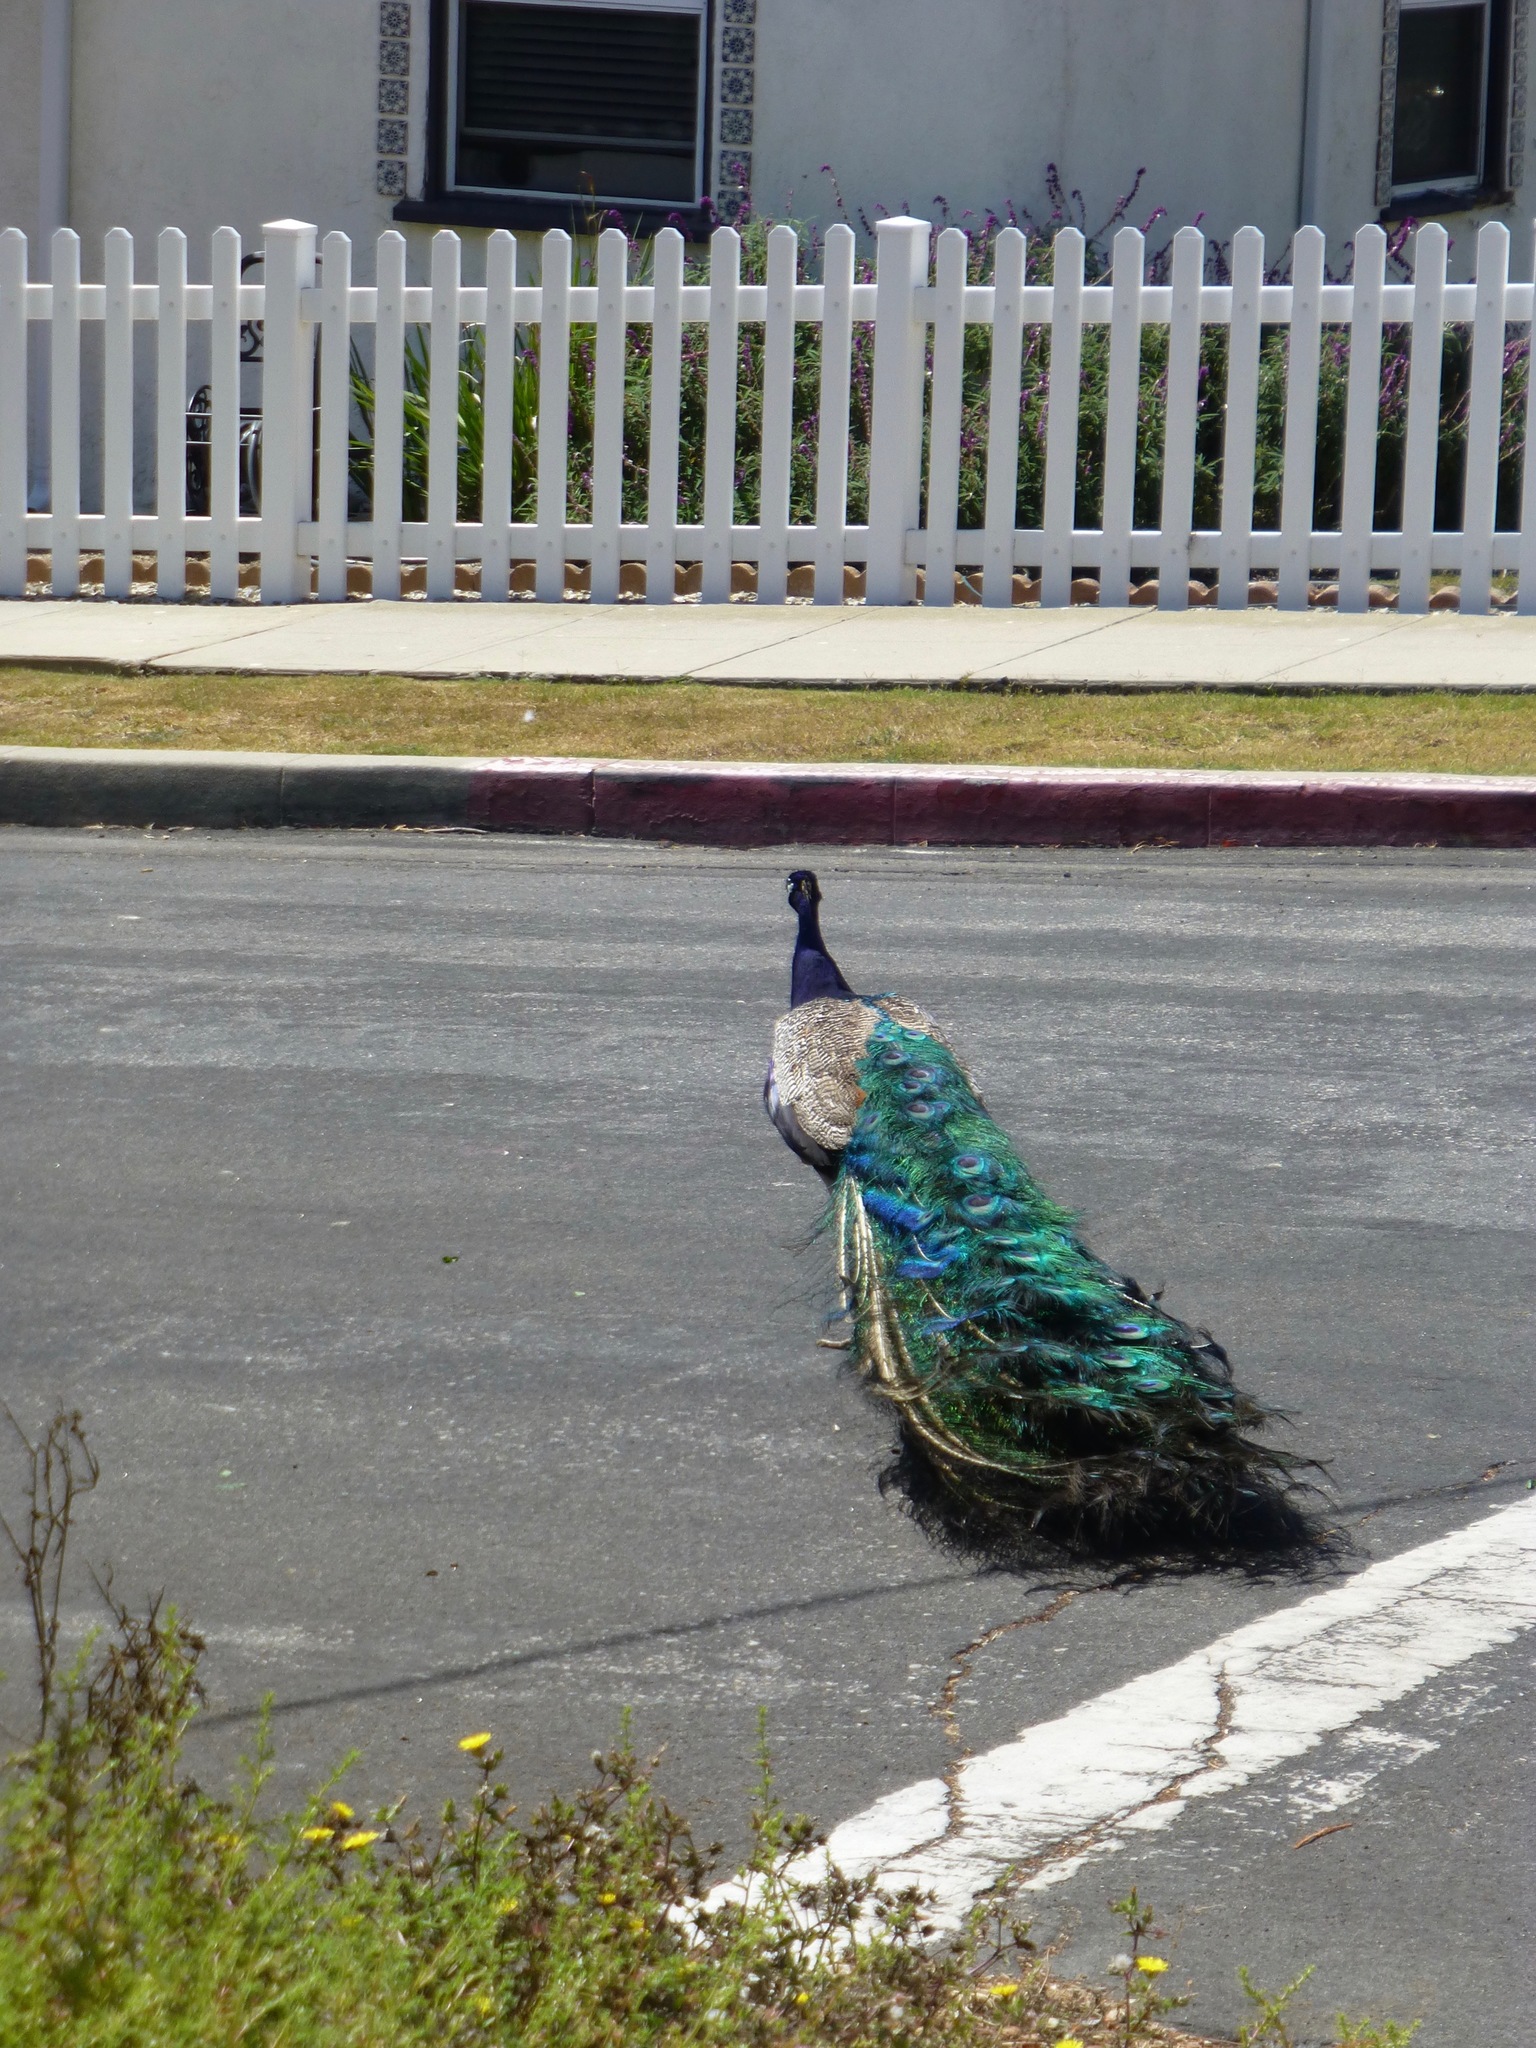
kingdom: Animalia
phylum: Chordata
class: Aves
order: Galliformes
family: Phasianidae
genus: Pavo
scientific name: Pavo cristatus
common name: Indian peafowl
